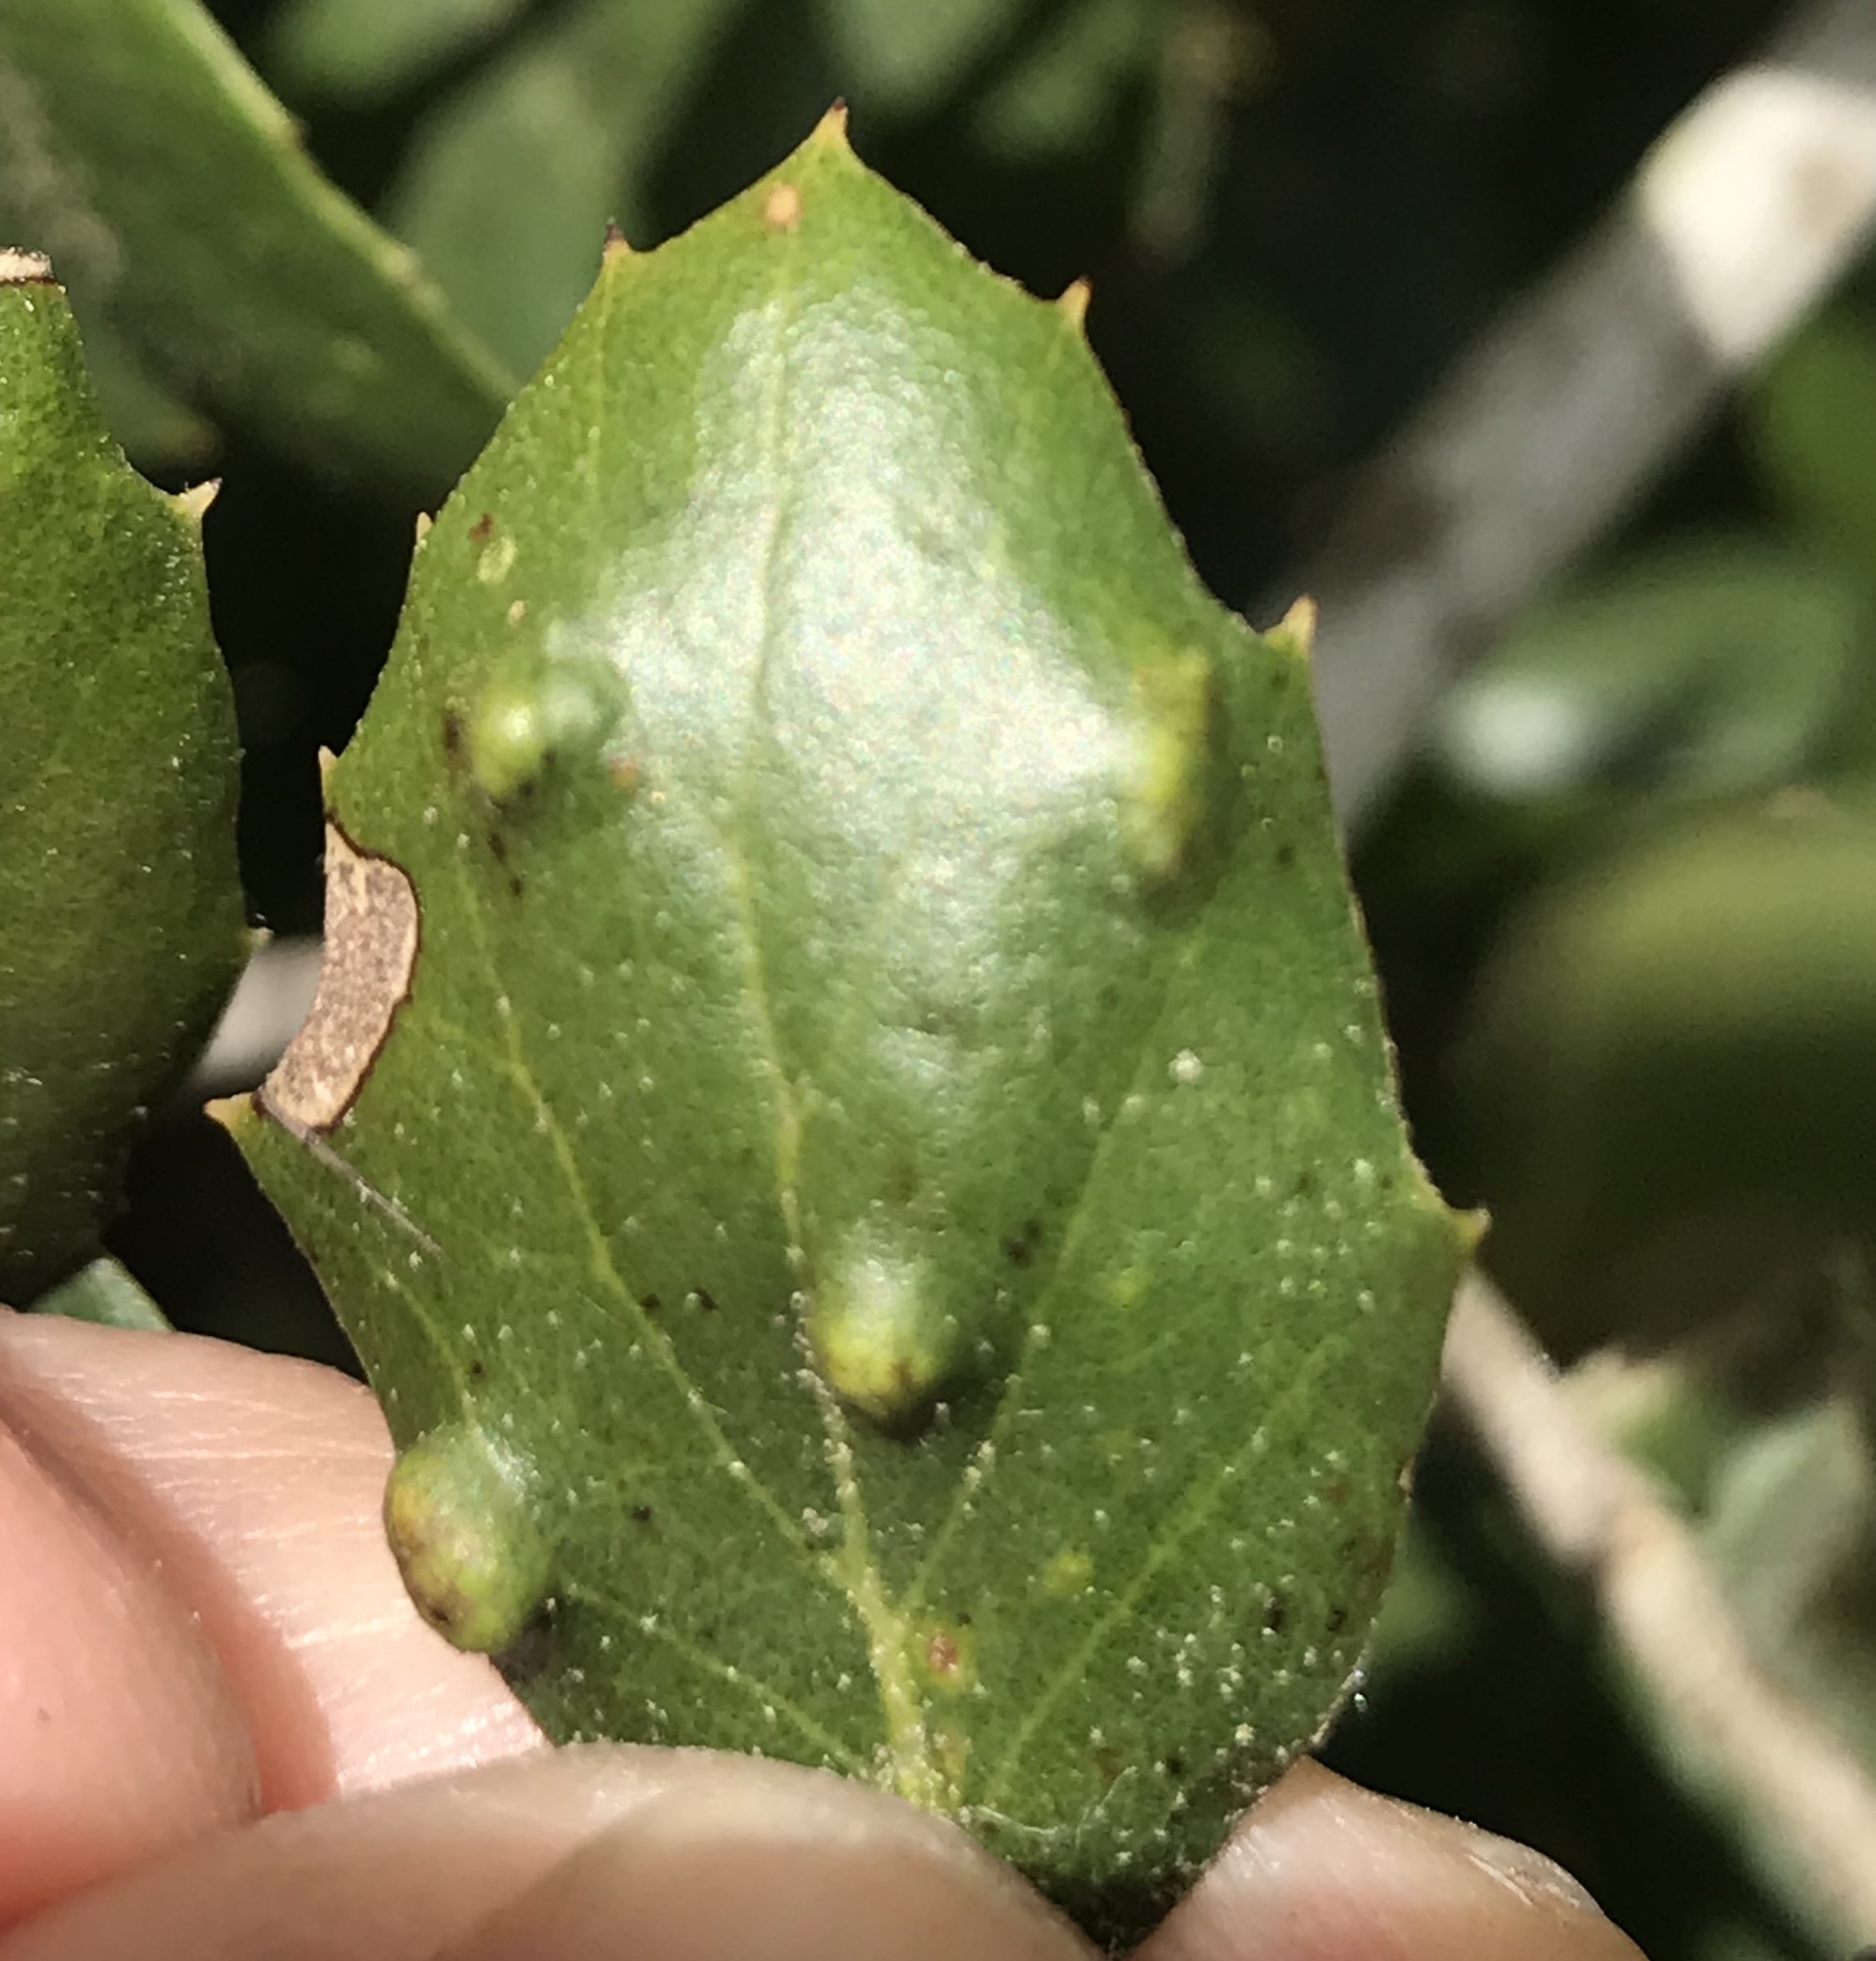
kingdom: Animalia
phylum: Arthropoda
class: Arachnida
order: Trombidiformes
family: Eriophyidae
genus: Aceria
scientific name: Aceria
